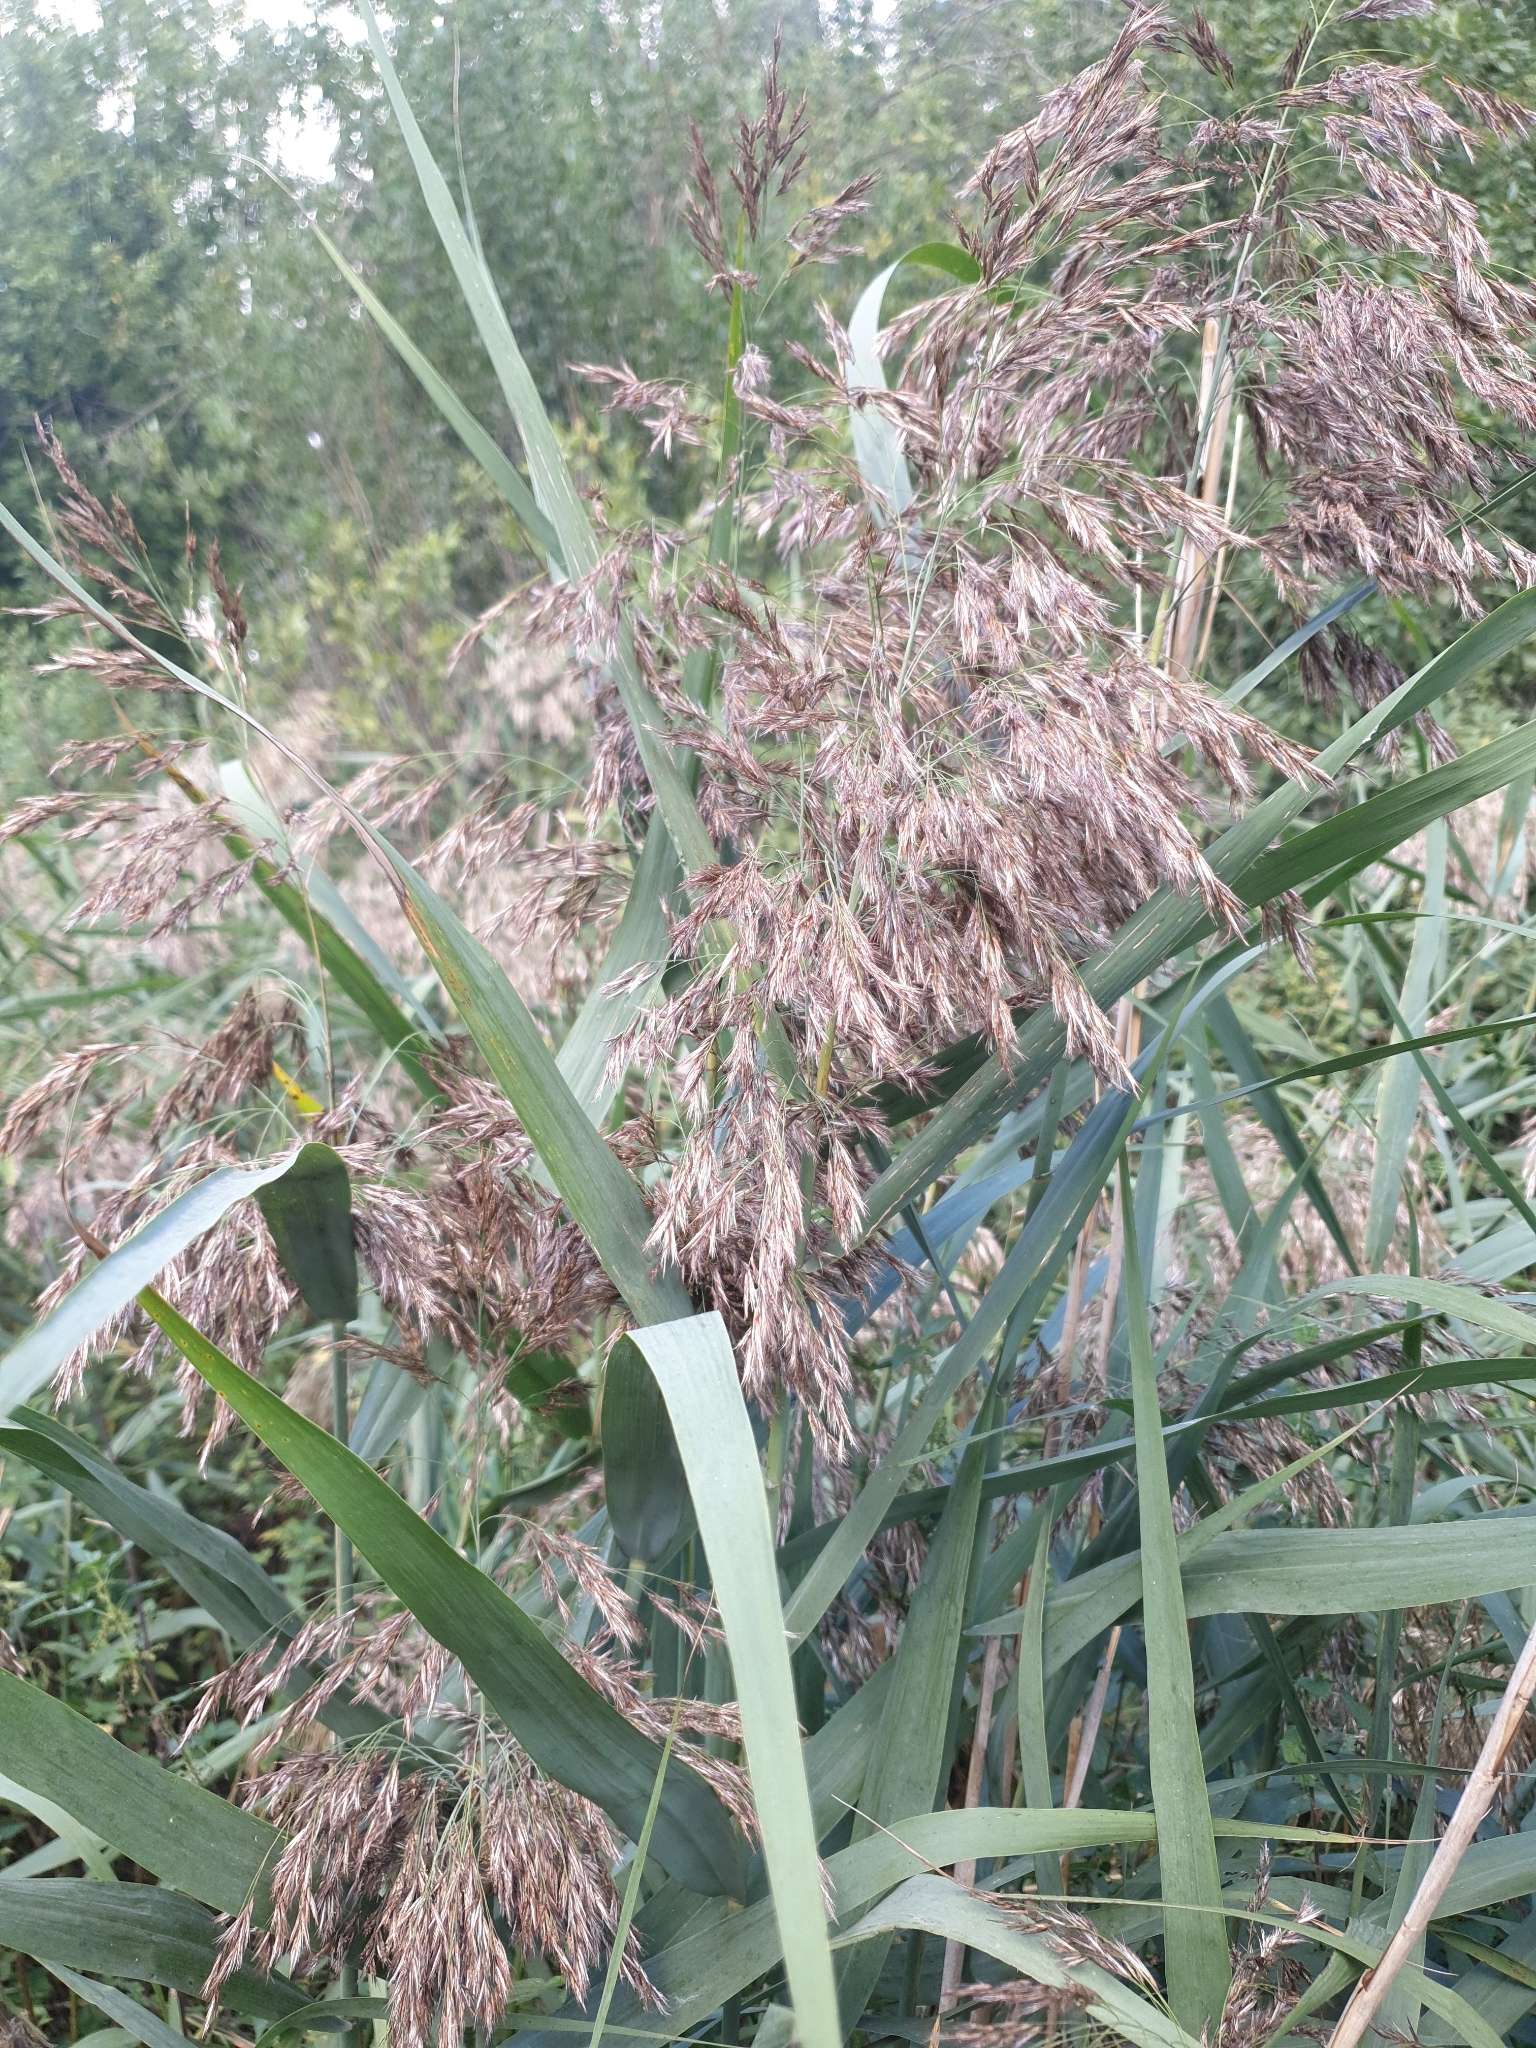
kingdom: Plantae
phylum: Tracheophyta
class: Liliopsida
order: Poales
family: Poaceae
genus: Phragmites
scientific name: Phragmites australis
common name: Common reed
